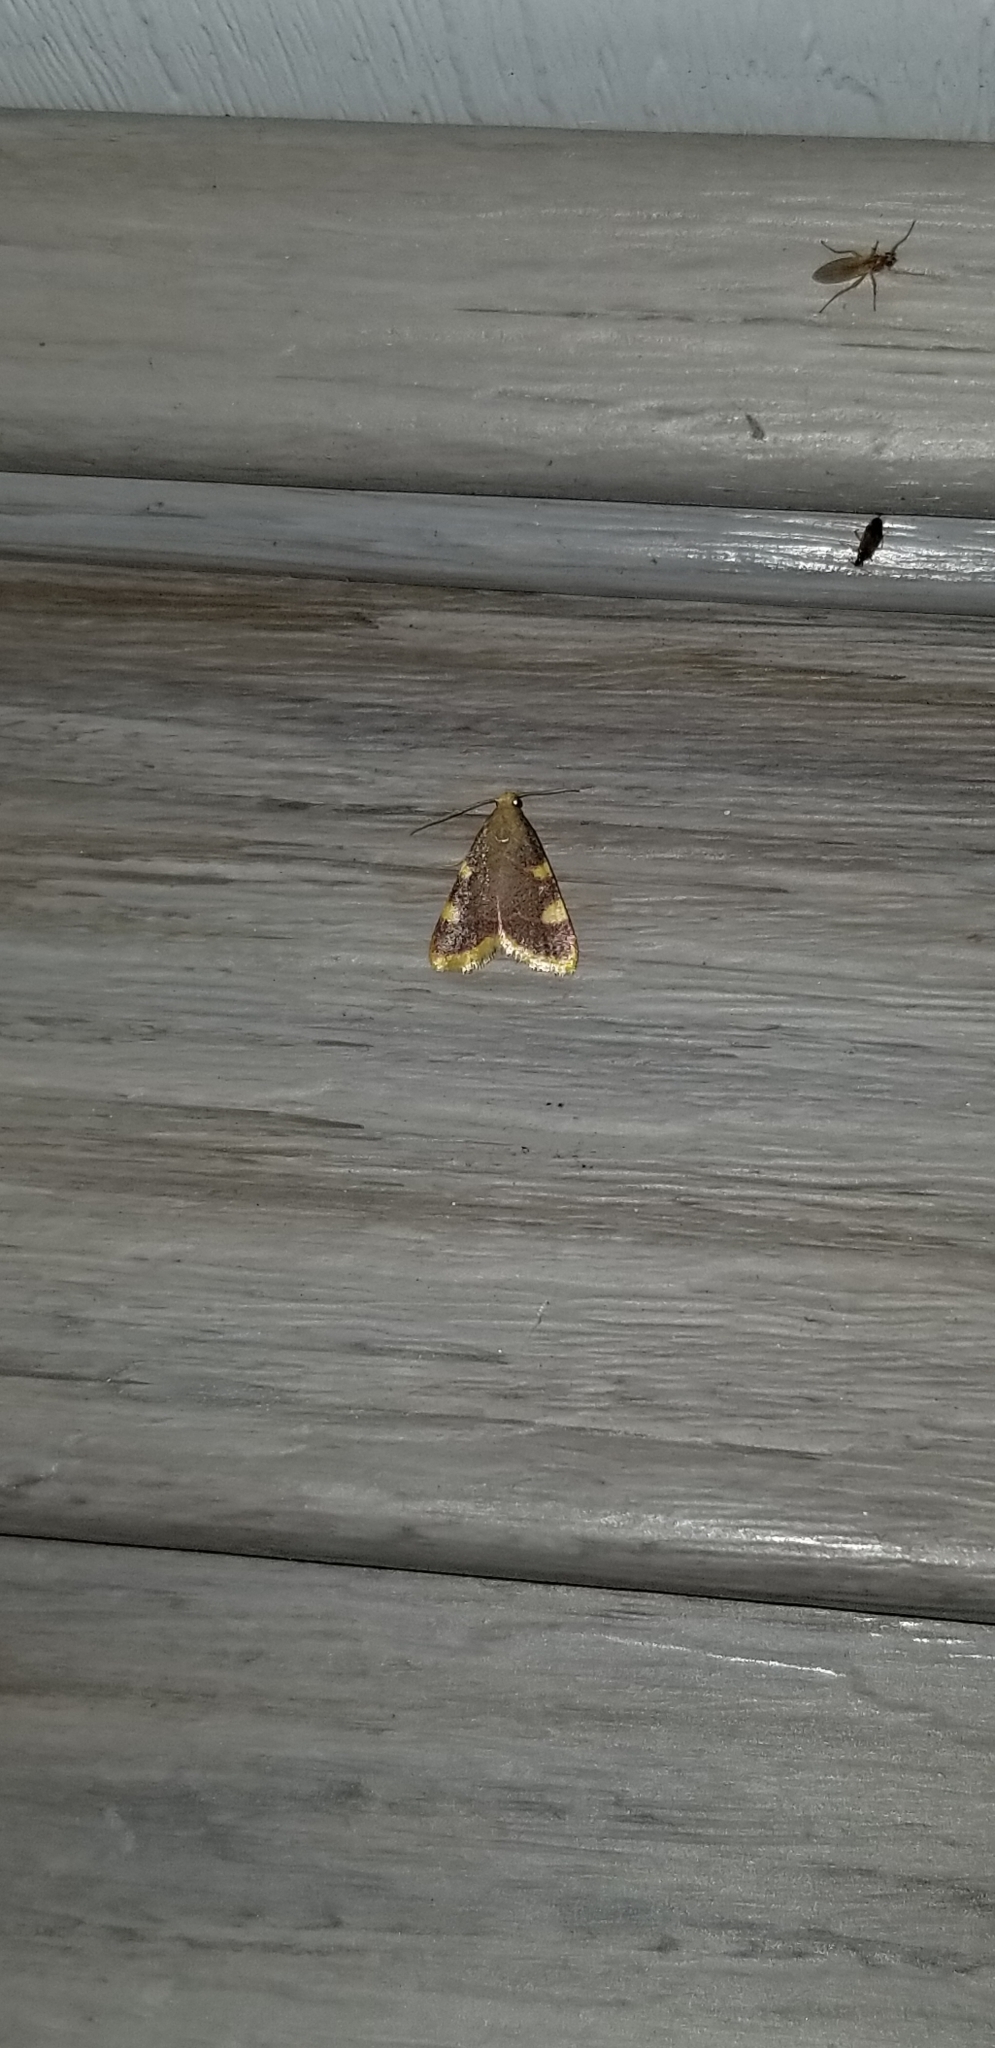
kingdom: Animalia
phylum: Arthropoda
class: Insecta
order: Lepidoptera
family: Pyralidae
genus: Hypsopygia
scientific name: Hypsopygia costalis
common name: Gold triangle
